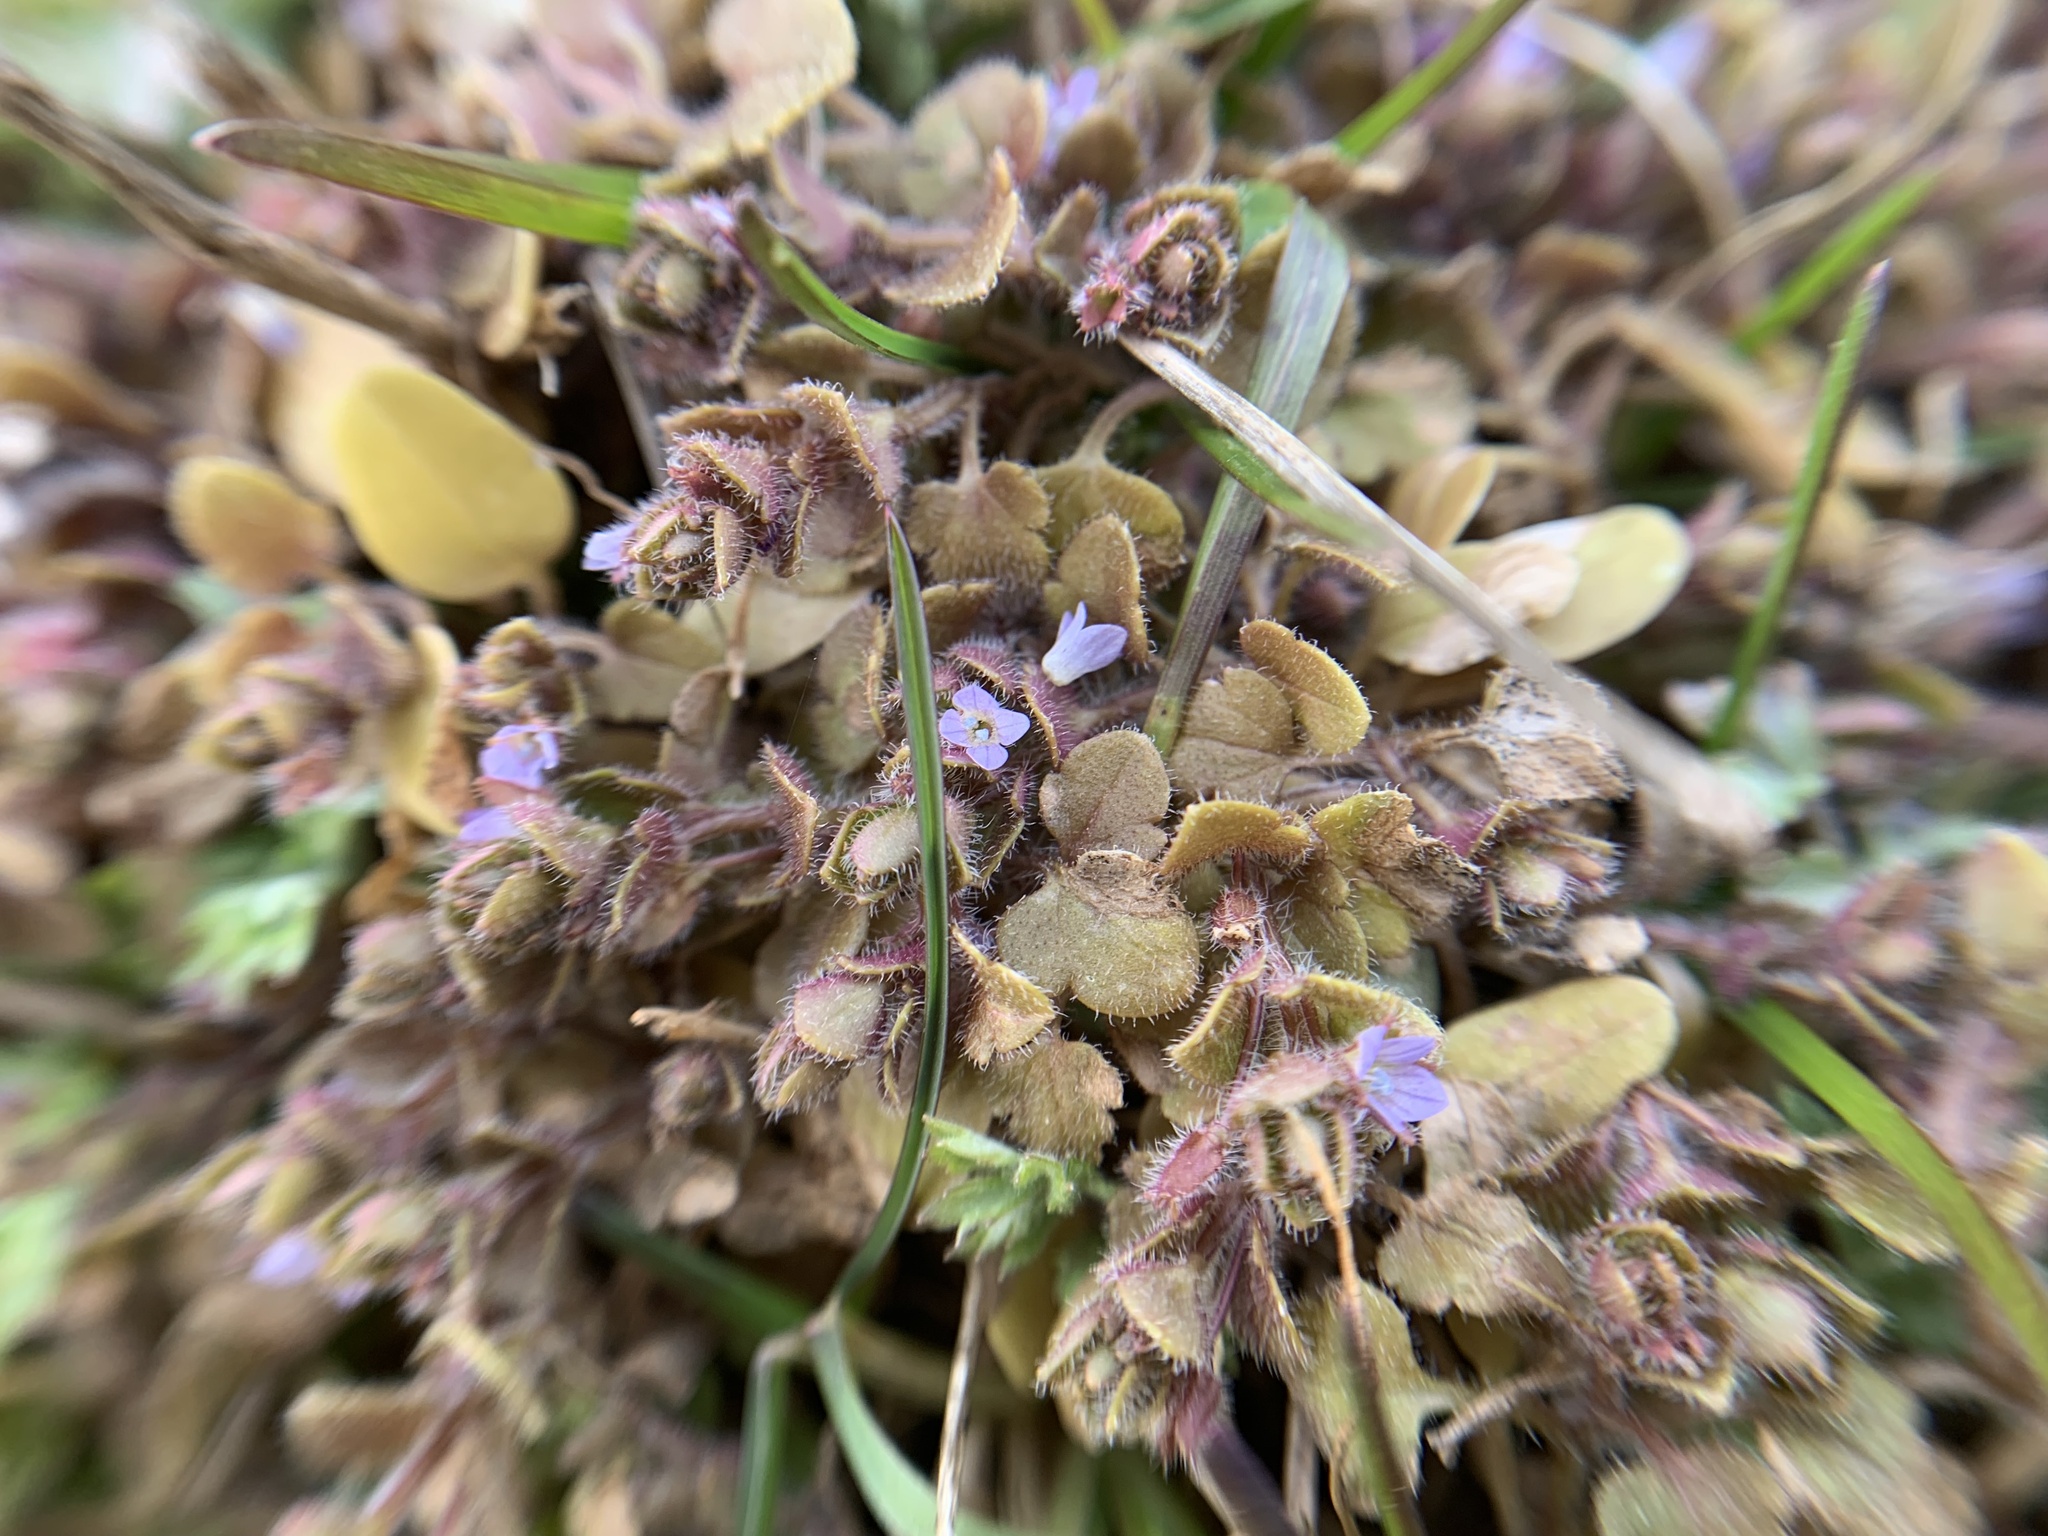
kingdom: Plantae
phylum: Tracheophyta
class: Magnoliopsida
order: Lamiales
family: Plantaginaceae
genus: Veronica
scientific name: Veronica hederifolia
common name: Ivy-leaved speedwell
